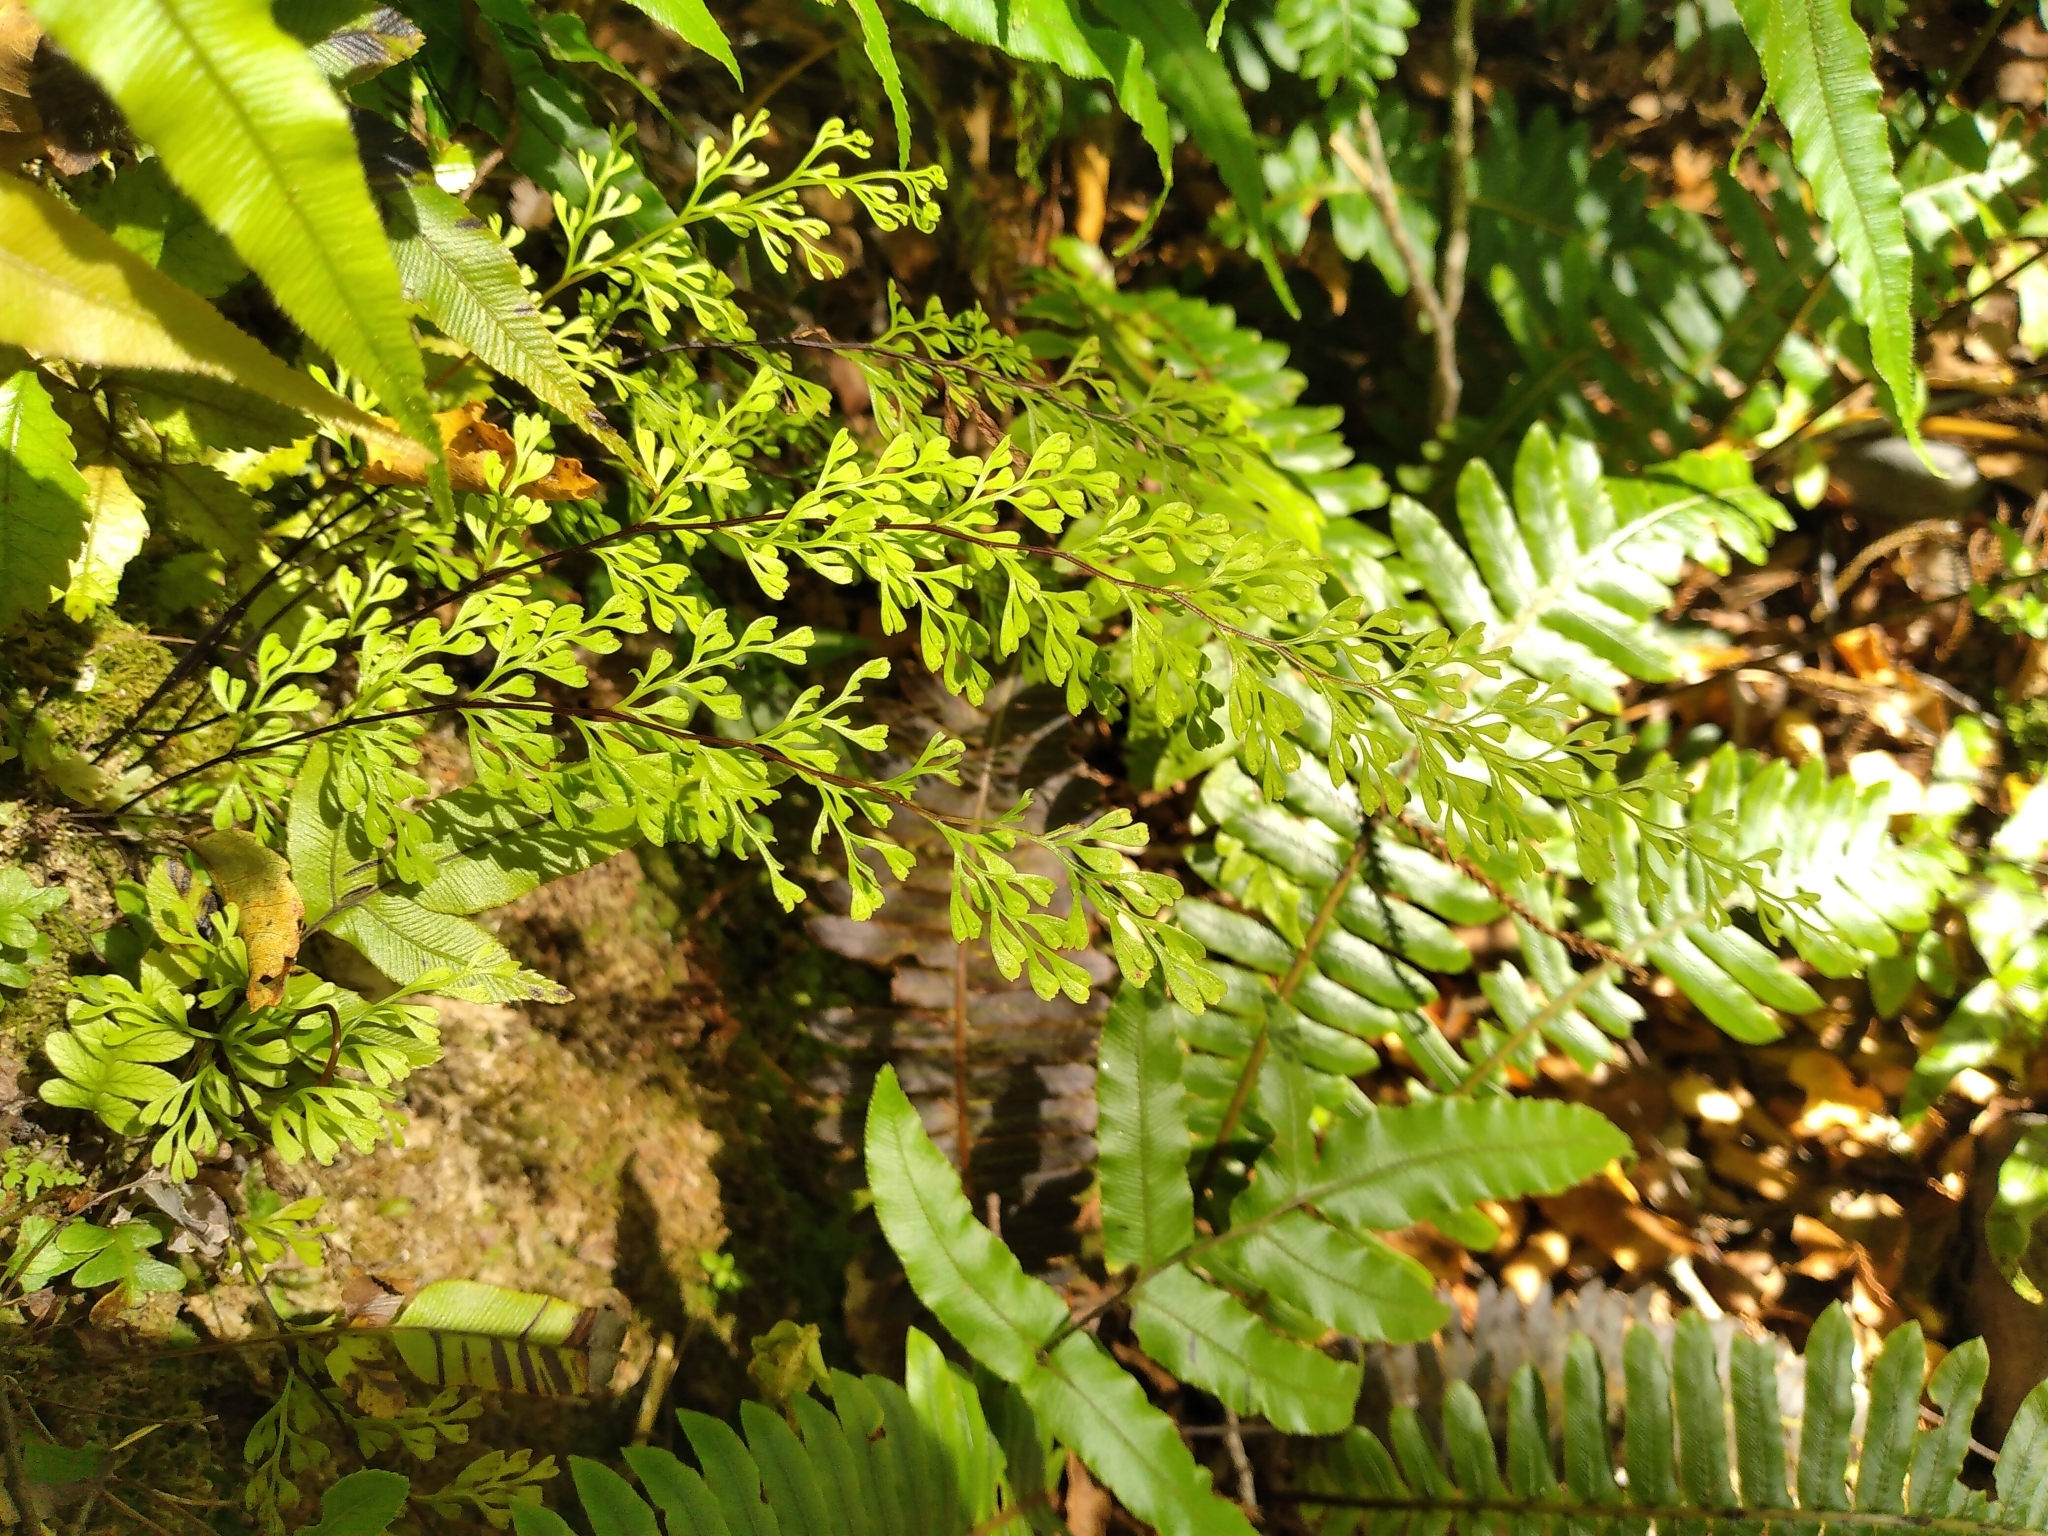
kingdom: Plantae
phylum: Tracheophyta
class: Polypodiopsida
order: Polypodiales
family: Lindsaeaceae
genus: Odontosoria
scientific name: Odontosoria viridis
